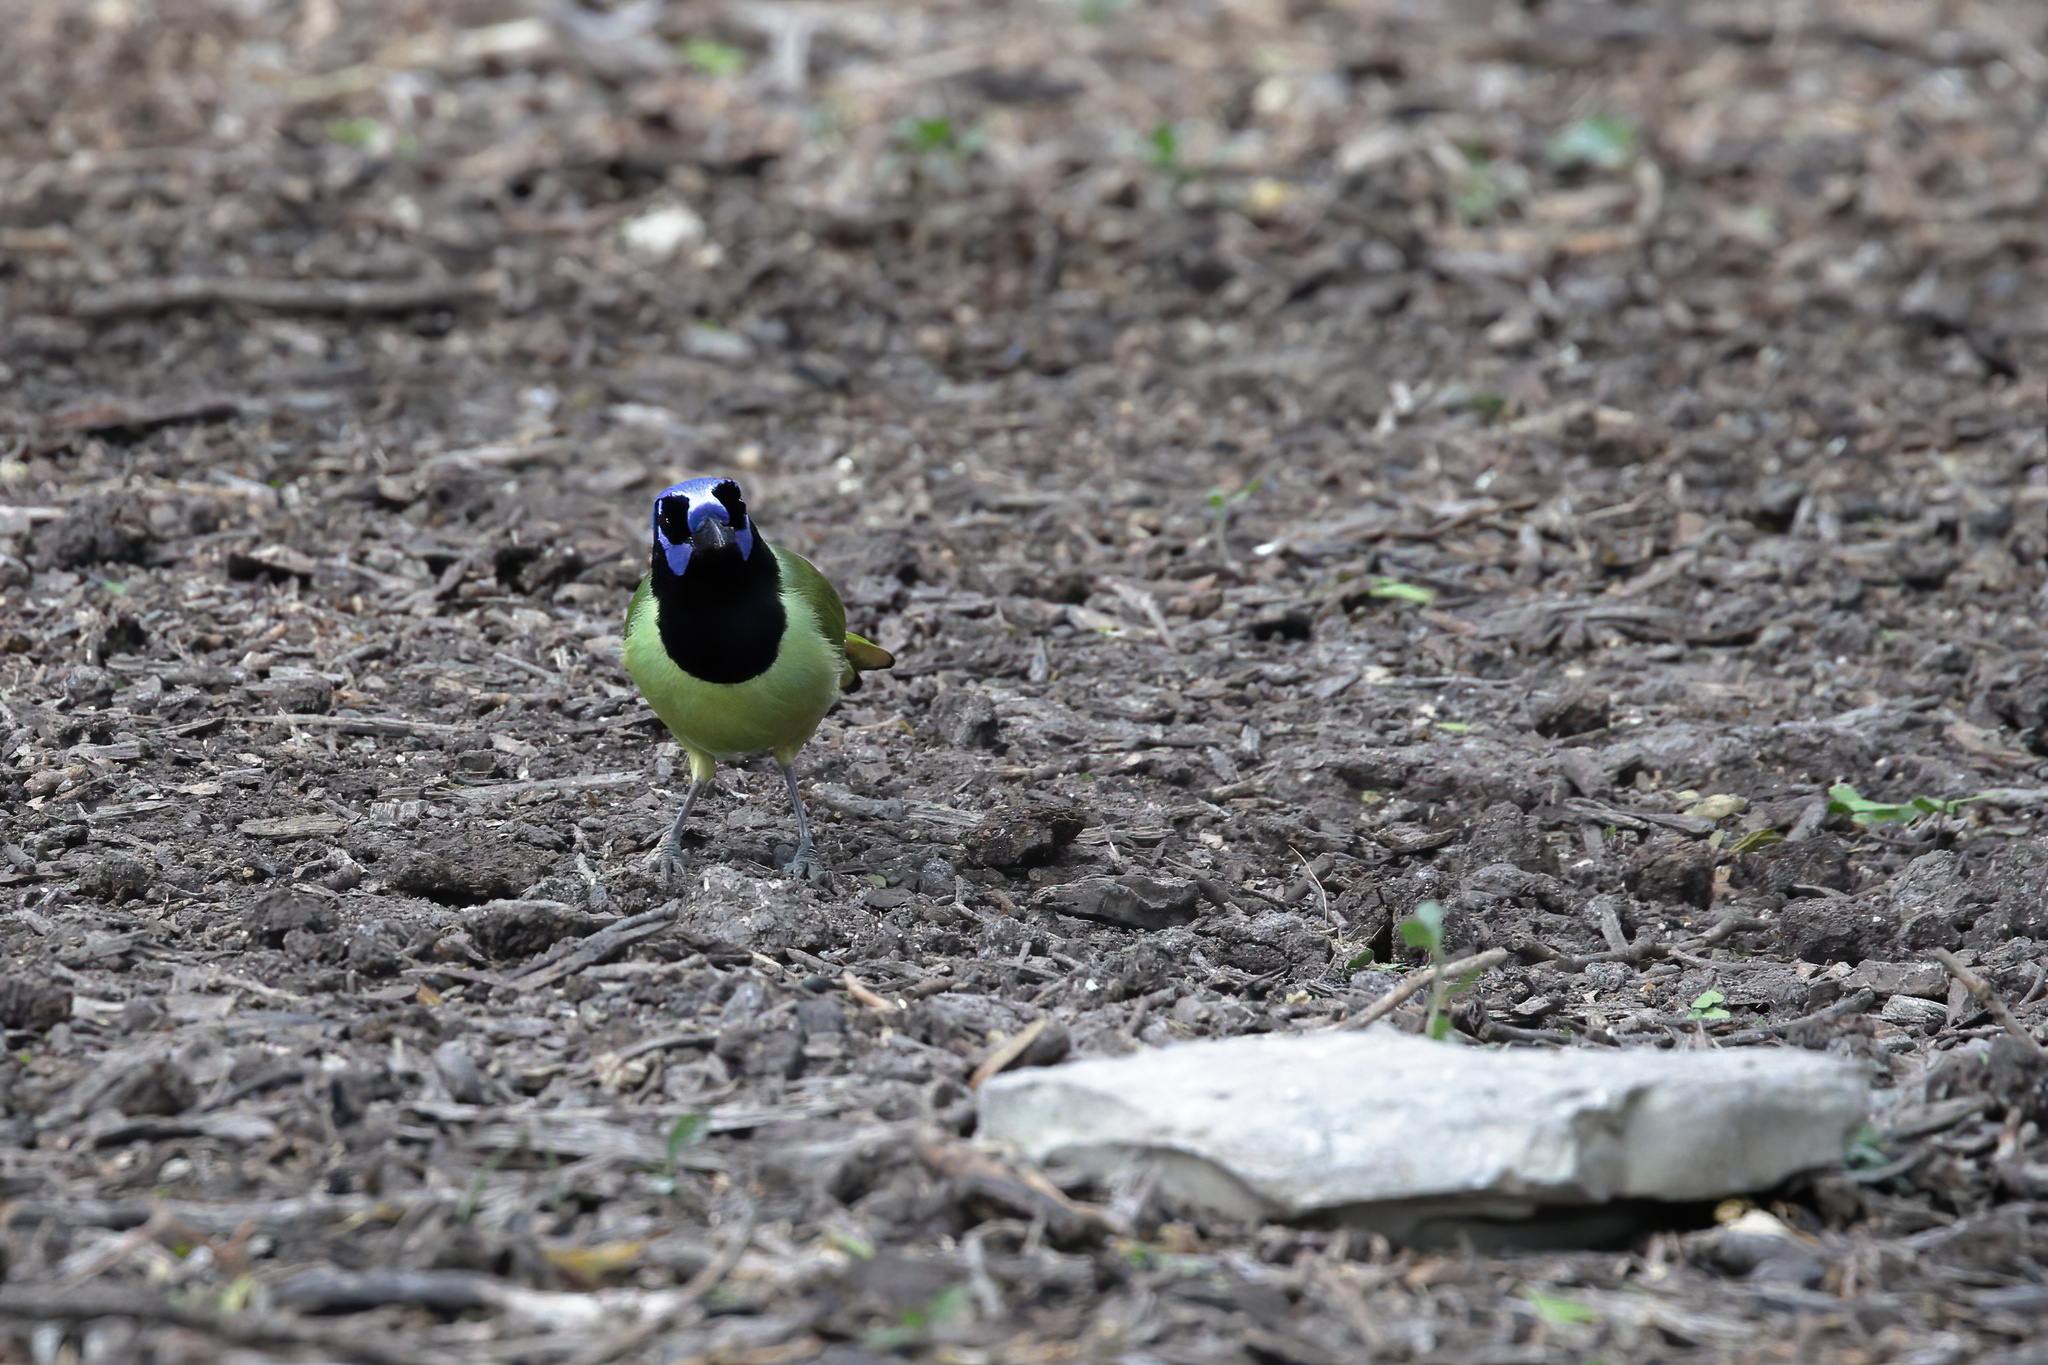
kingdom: Animalia
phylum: Chordata
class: Aves
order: Passeriformes
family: Corvidae
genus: Cyanocorax
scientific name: Cyanocorax yncas
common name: Green jay
